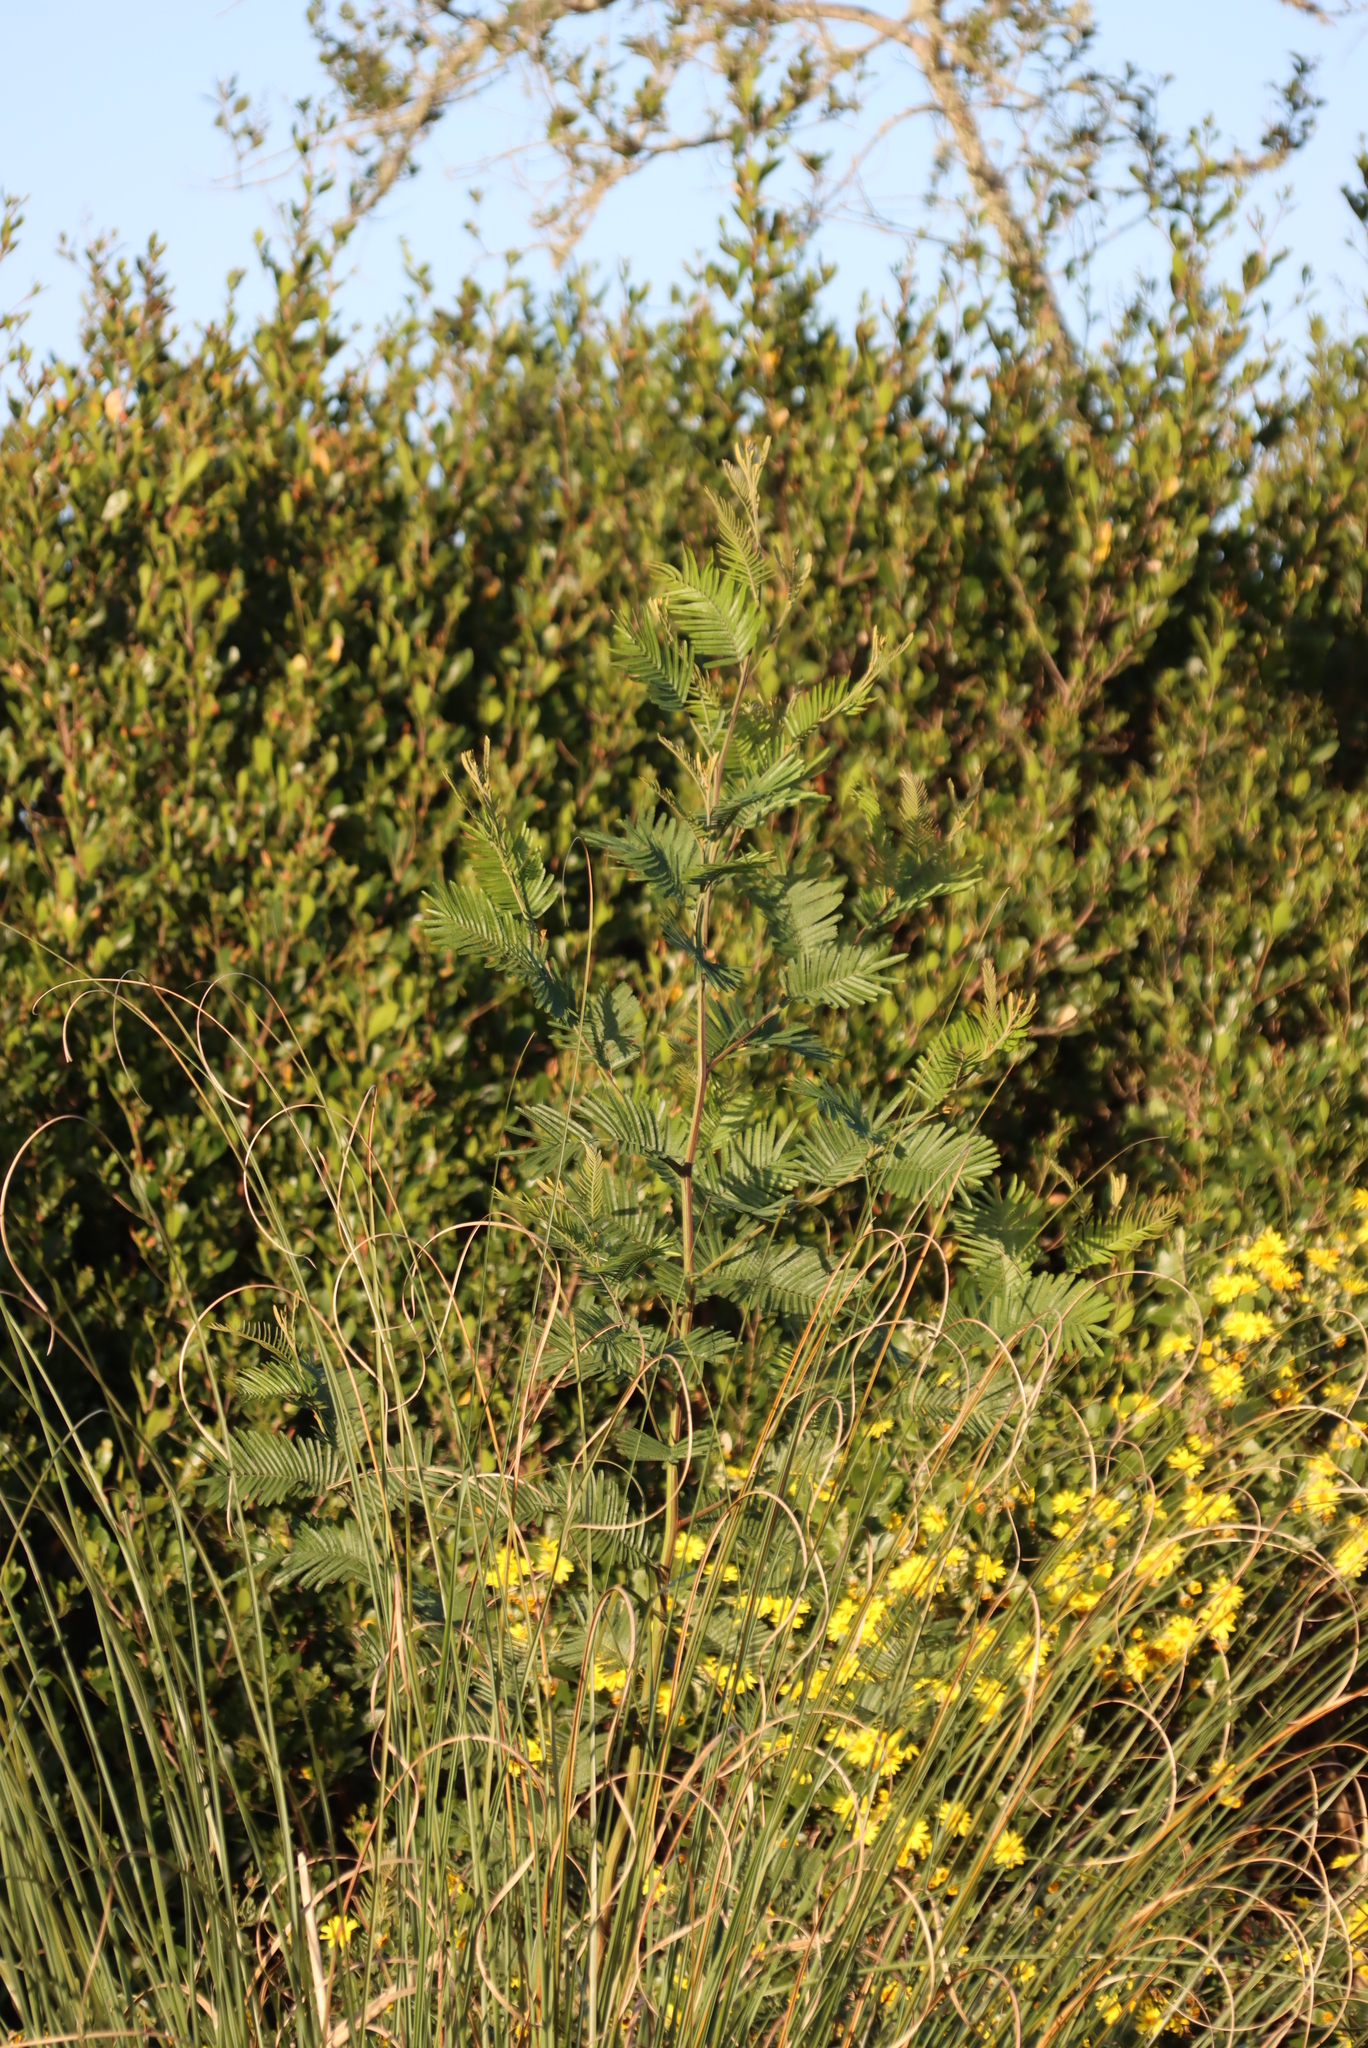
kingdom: Plantae
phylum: Tracheophyta
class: Magnoliopsida
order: Fabales
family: Fabaceae
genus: Acacia
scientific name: Acacia mearnsii
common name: Black wattle
